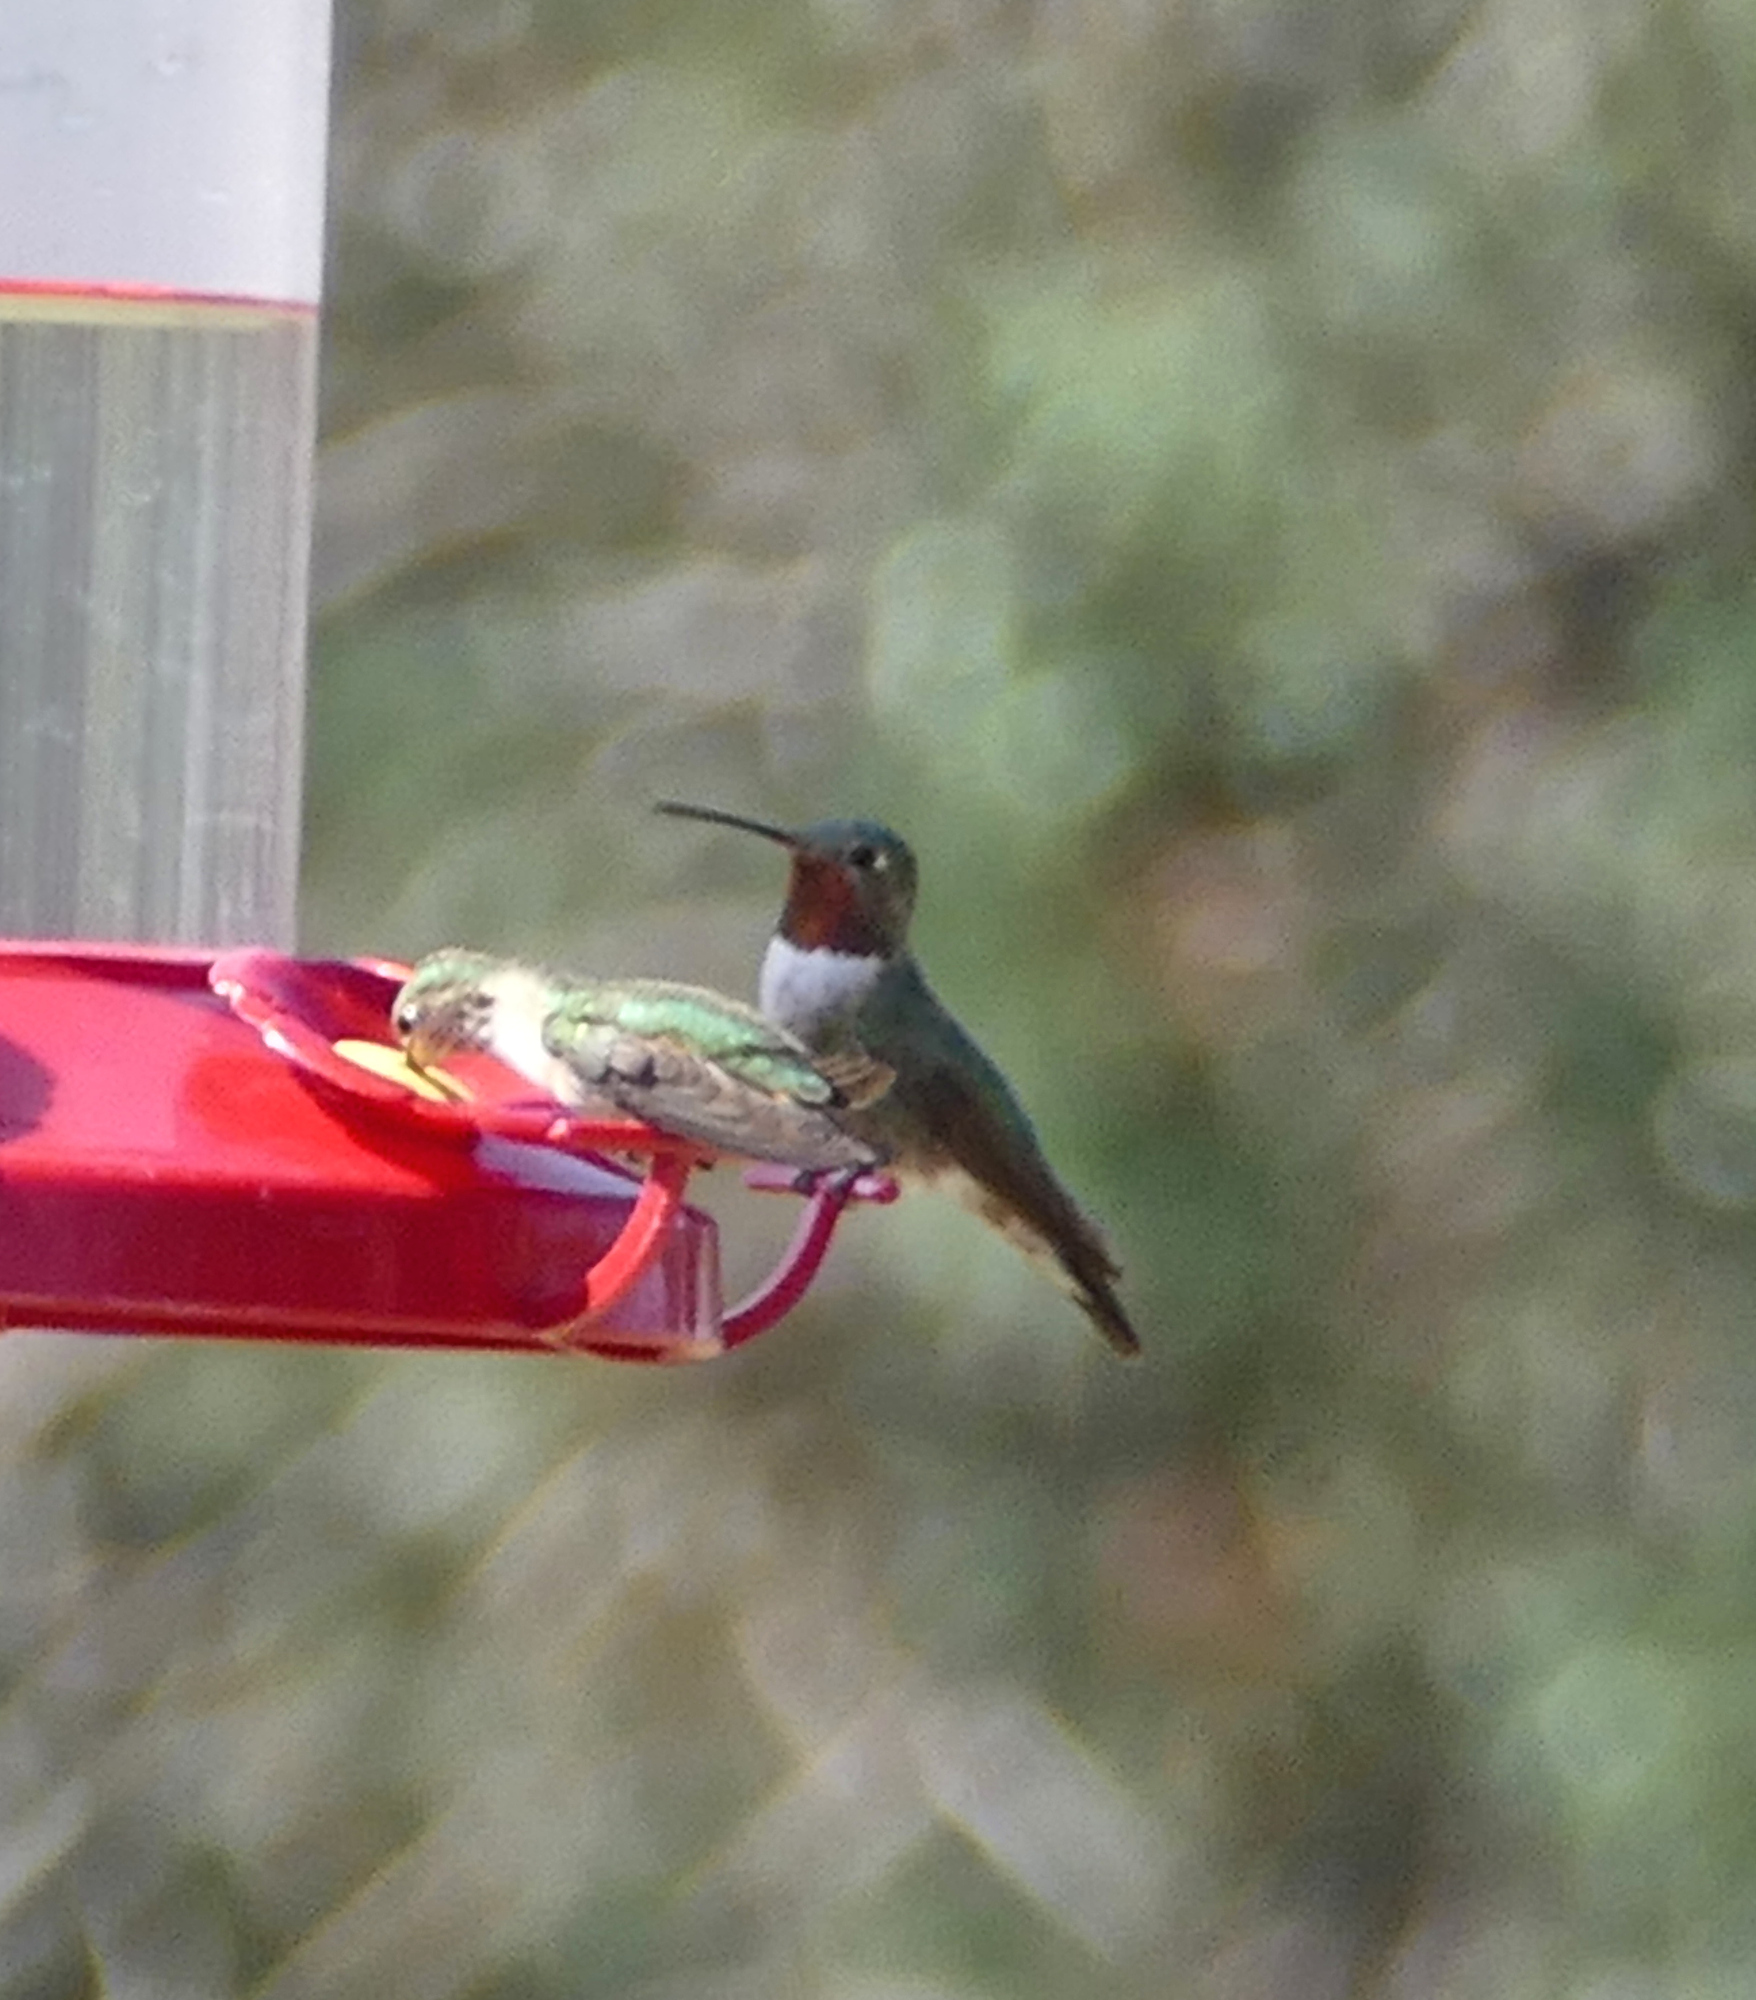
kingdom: Animalia
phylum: Chordata
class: Aves
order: Apodiformes
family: Trochilidae
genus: Selasphorus
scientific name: Selasphorus platycercus
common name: Broad-tailed hummingbird
